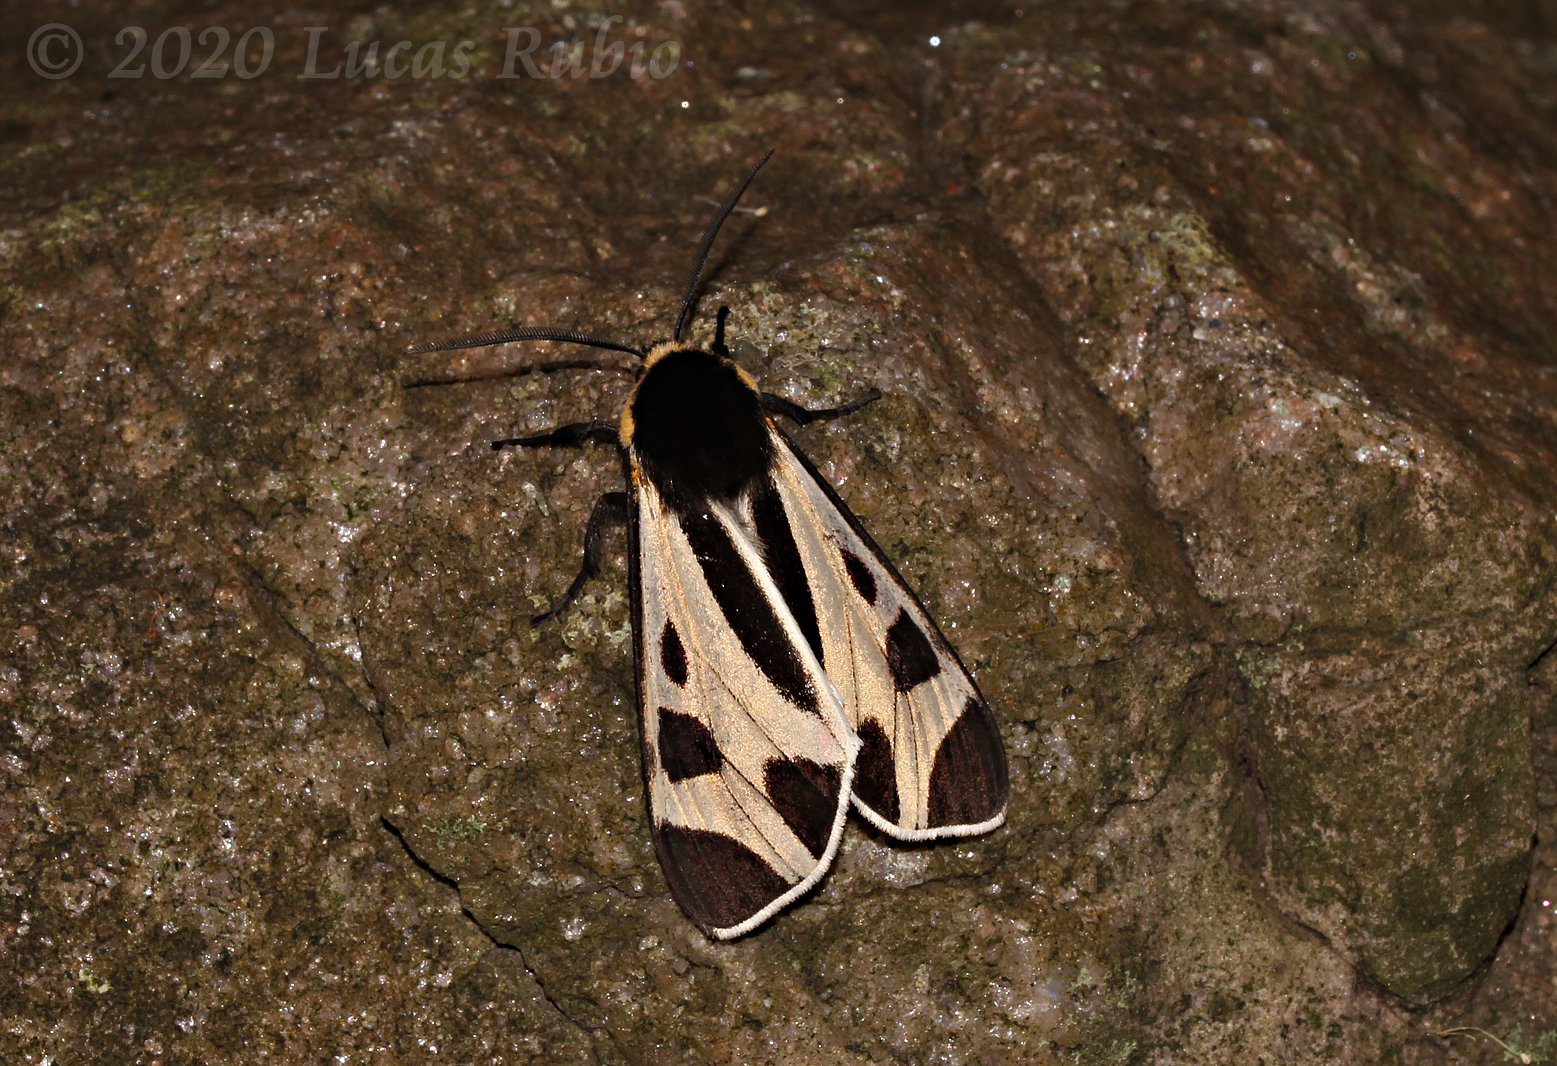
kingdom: Animalia
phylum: Arthropoda
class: Insecta
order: Lepidoptera
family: Erebidae
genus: Dysschema
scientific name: Dysschema centenaria
